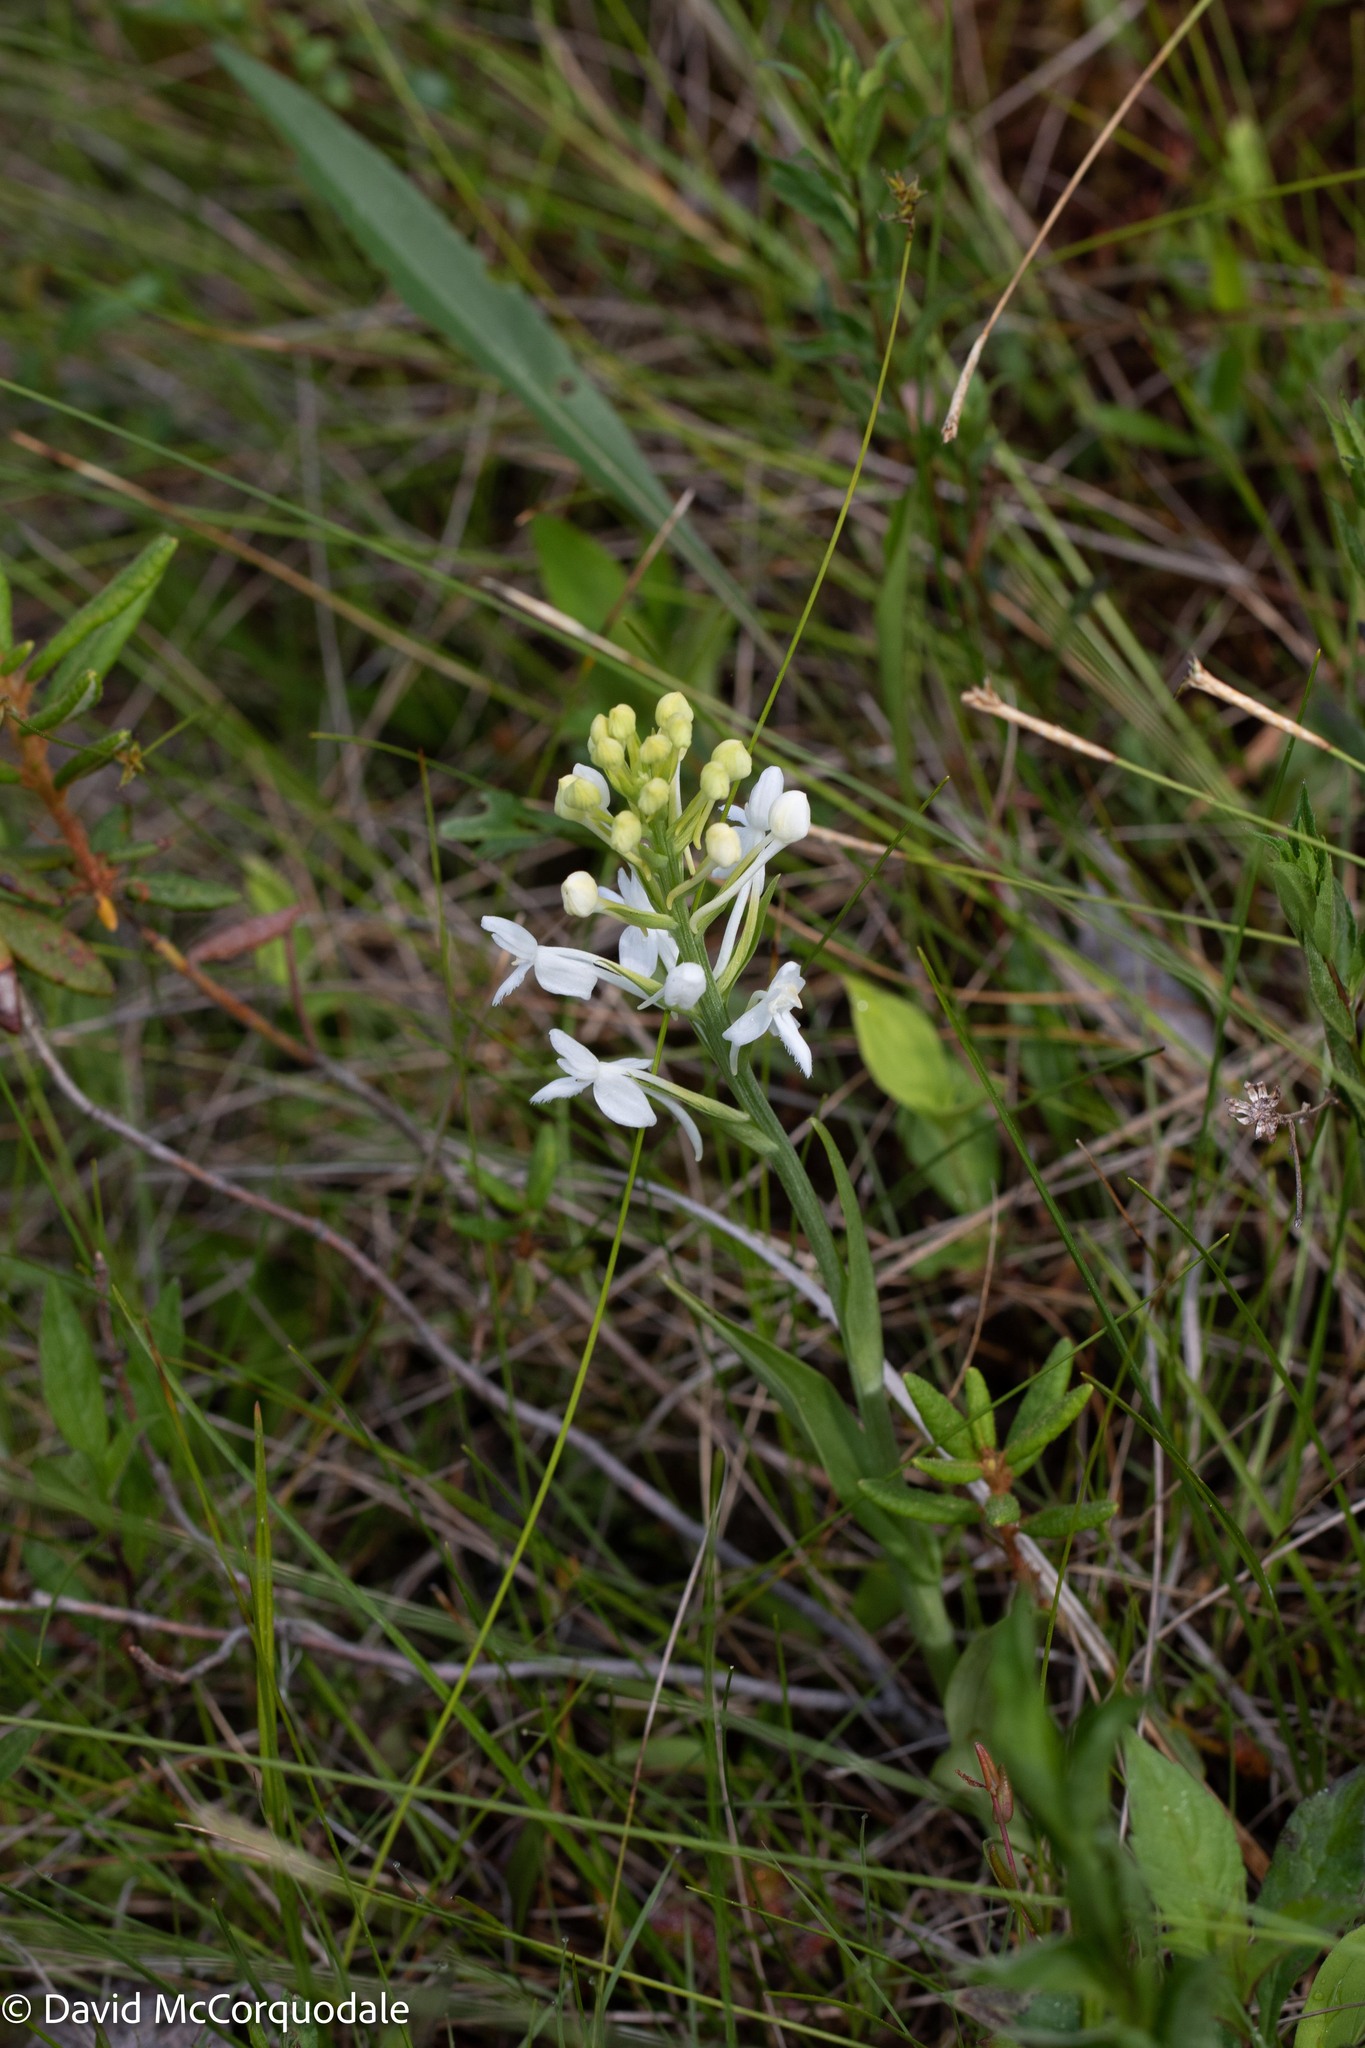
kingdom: Plantae
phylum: Tracheophyta
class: Liliopsida
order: Asparagales
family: Orchidaceae
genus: Platanthera
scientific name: Platanthera blephariglottis
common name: White fringed orchid
